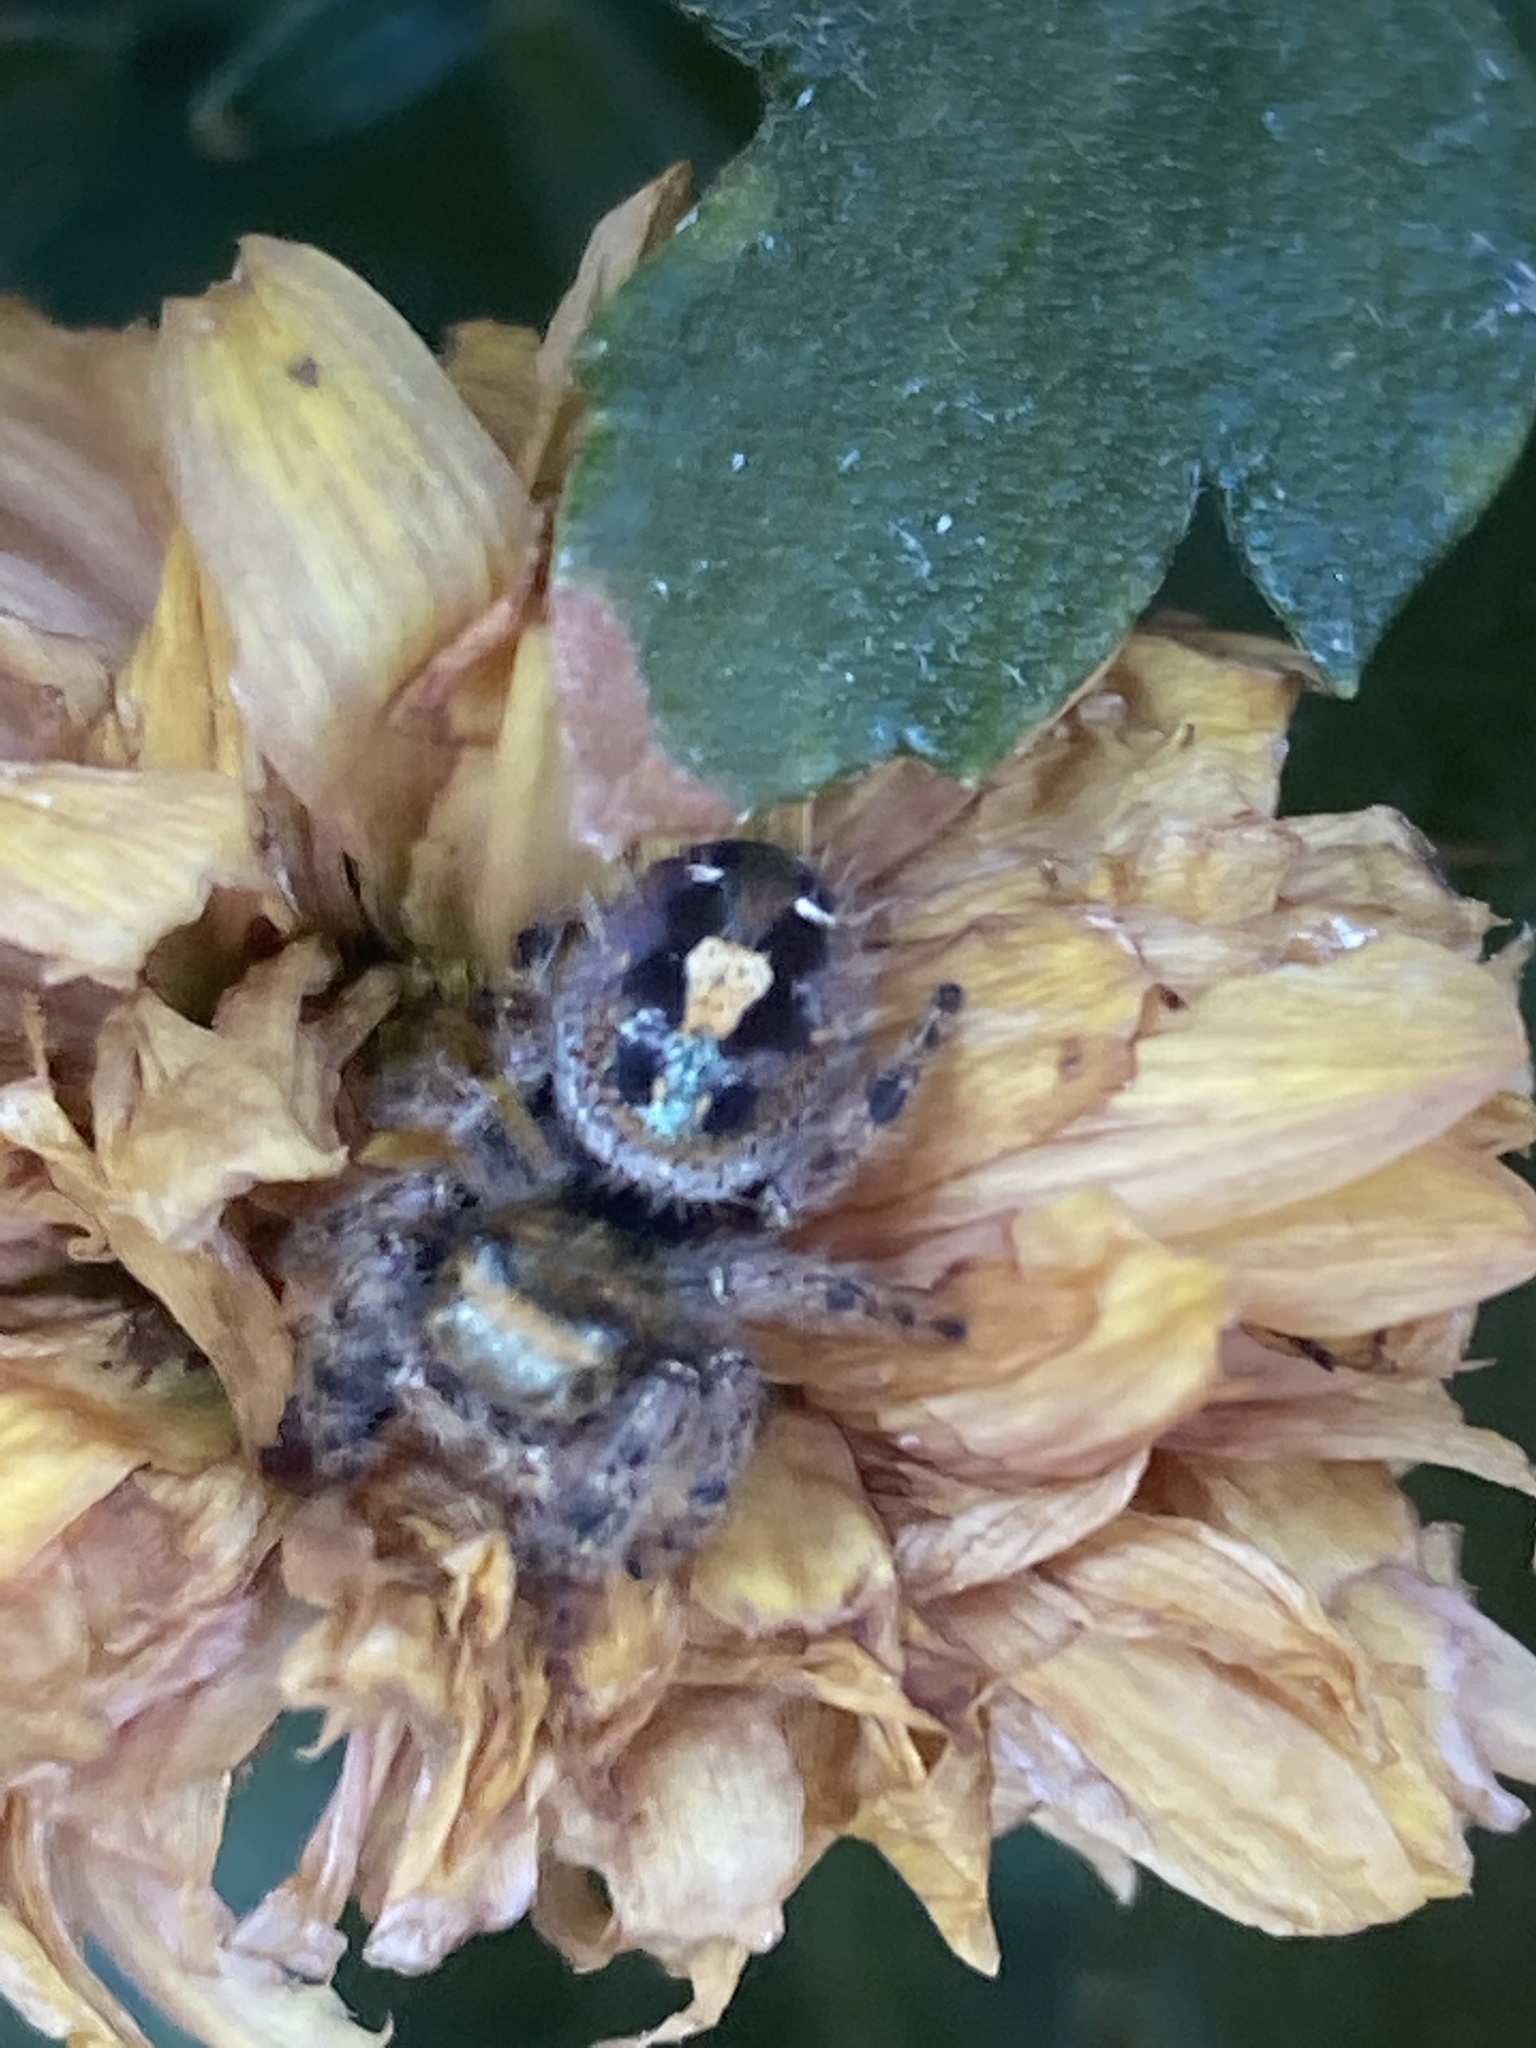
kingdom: Animalia
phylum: Arthropoda
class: Arachnida
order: Araneae
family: Salticidae
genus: Phidippus
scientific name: Phidippus audax
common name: Bold jumper
